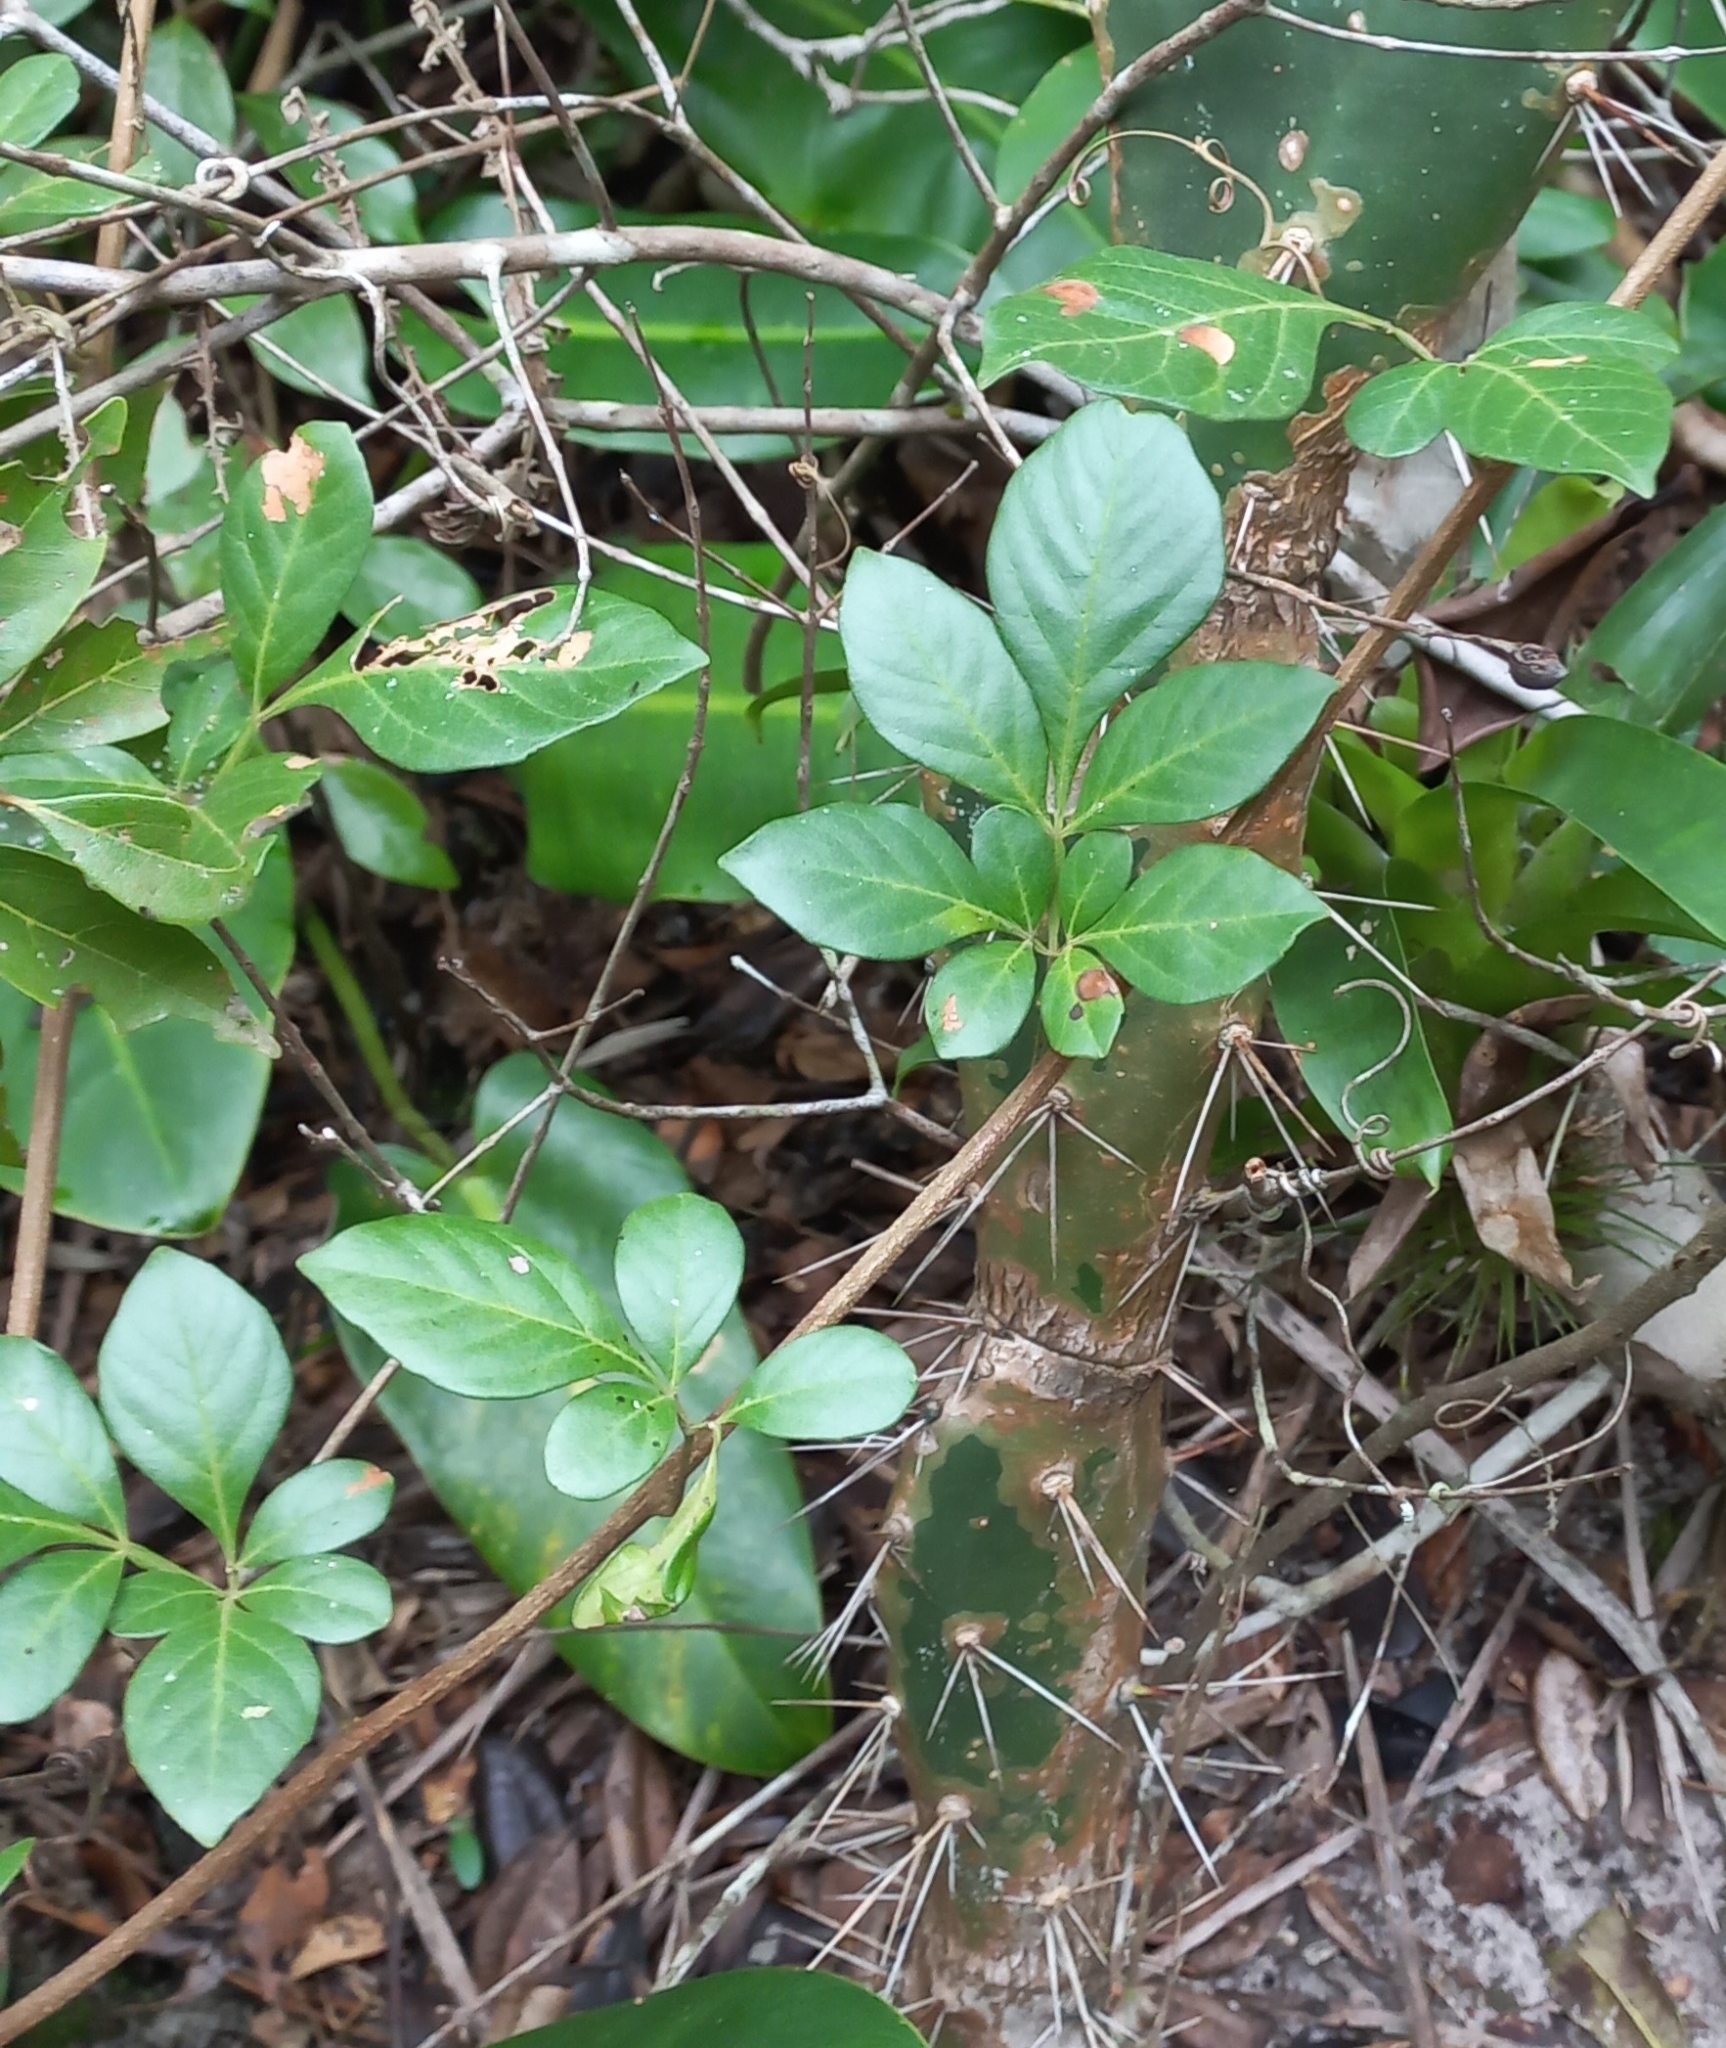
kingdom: Plantae
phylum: Tracheophyta
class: Magnoliopsida
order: Sapindales
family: Sapindaceae
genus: Paullinia
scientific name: Paullinia trigonia
